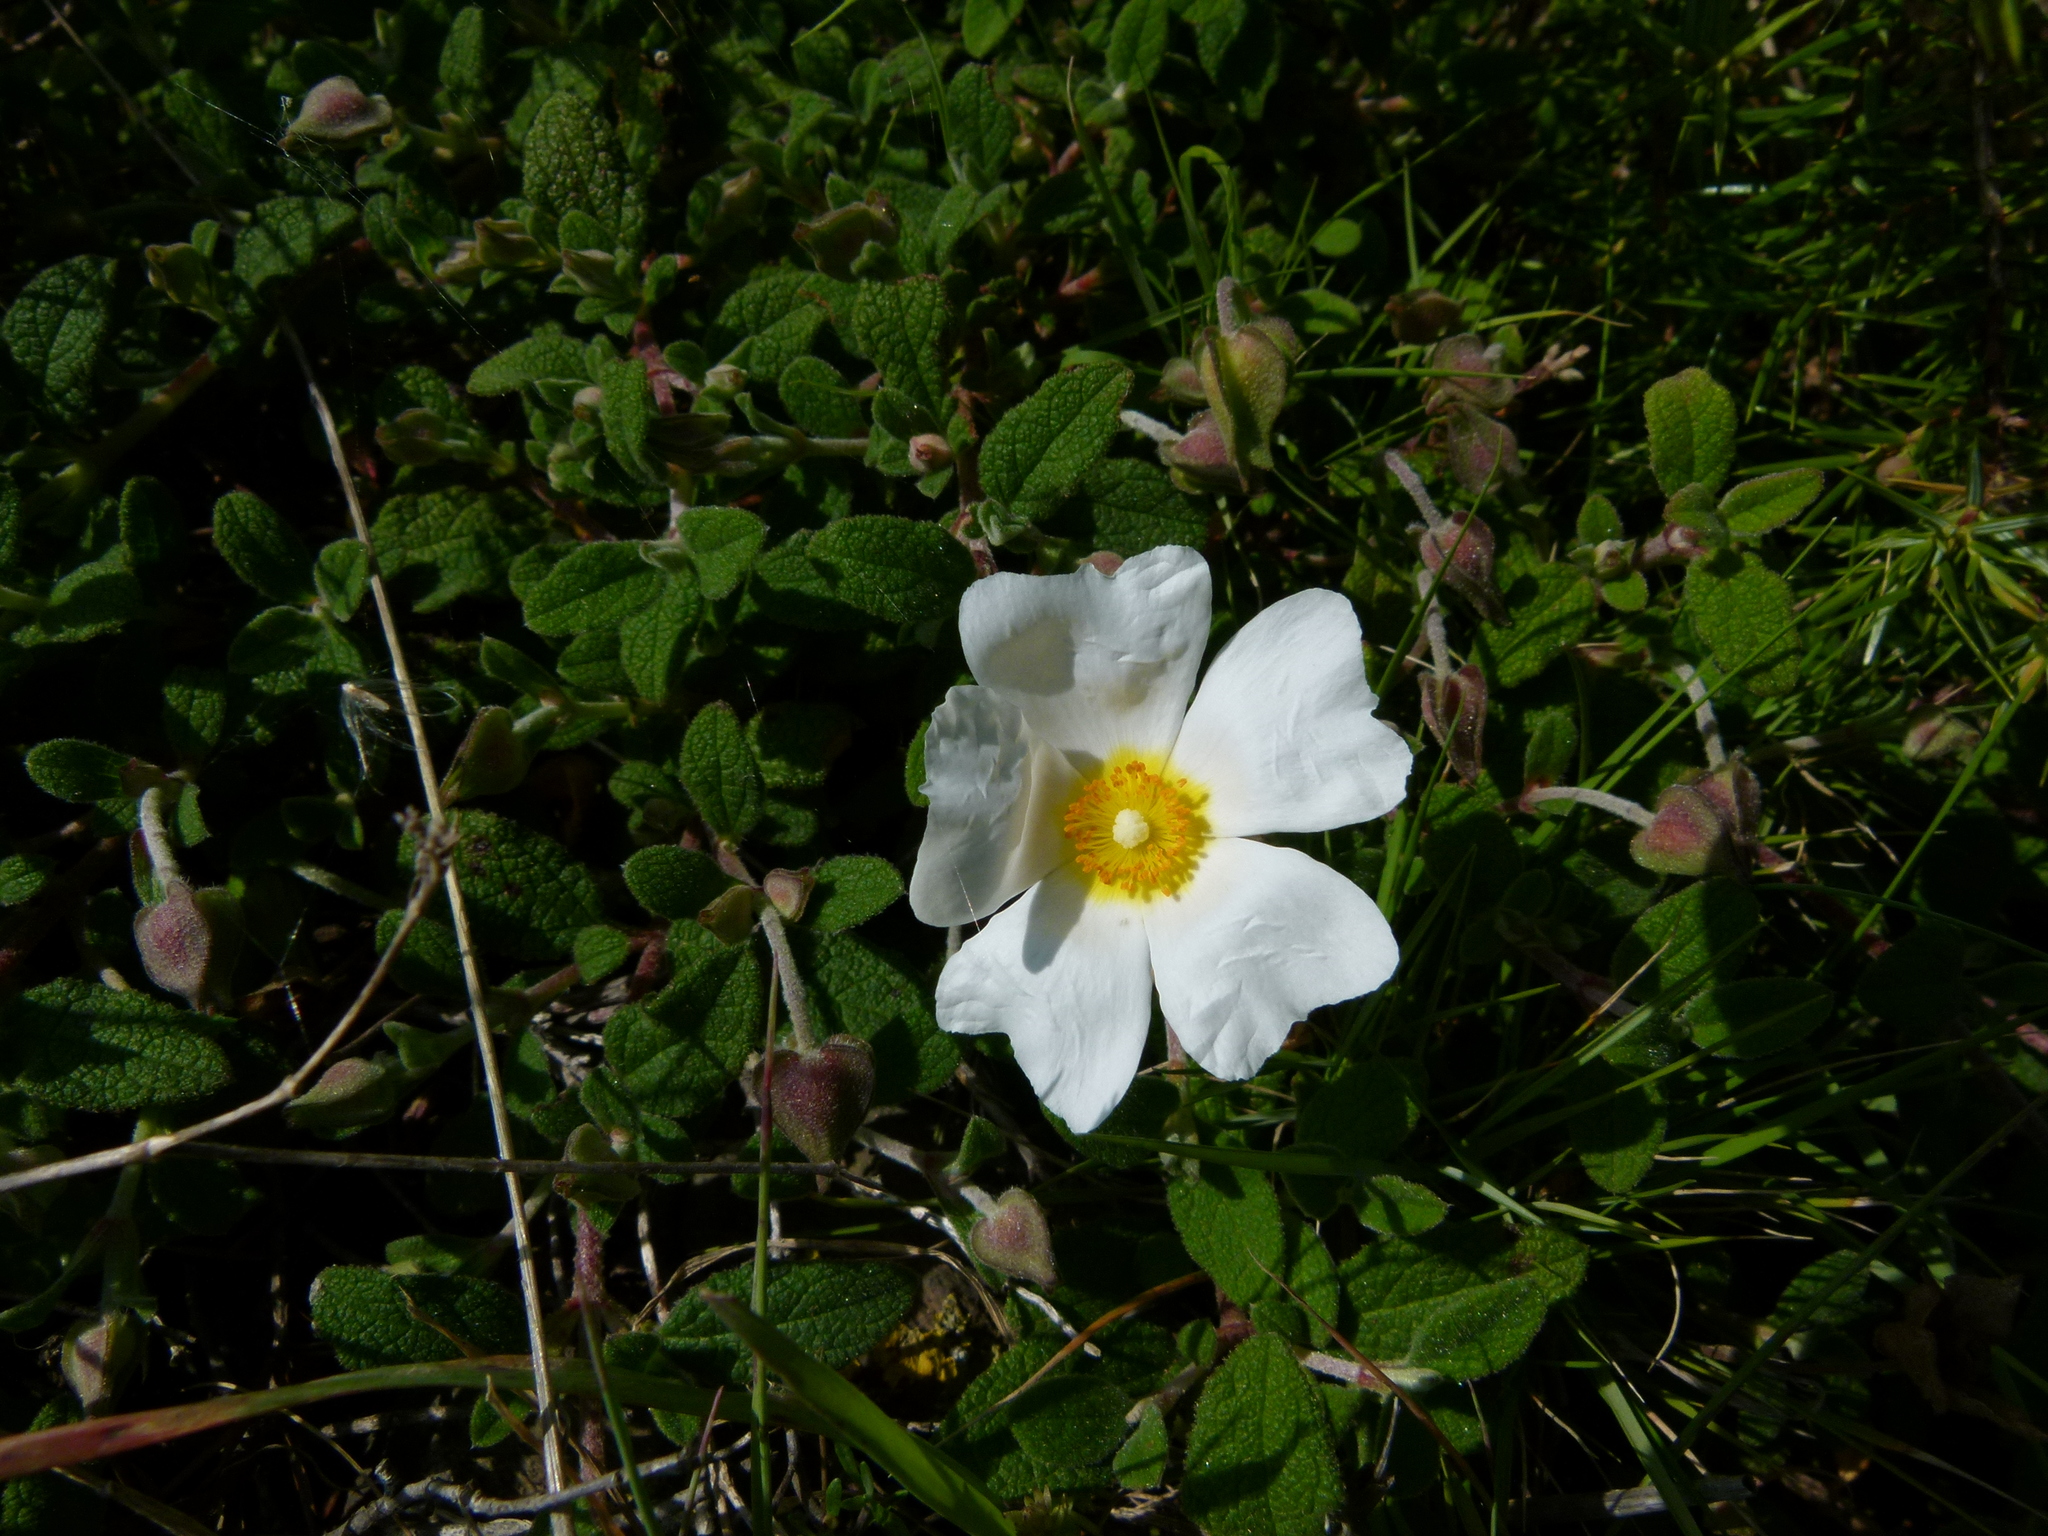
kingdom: Plantae
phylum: Tracheophyta
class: Magnoliopsida
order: Malvales
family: Cistaceae
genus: Cistus
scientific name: Cistus salviifolius
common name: Salvia cistus
